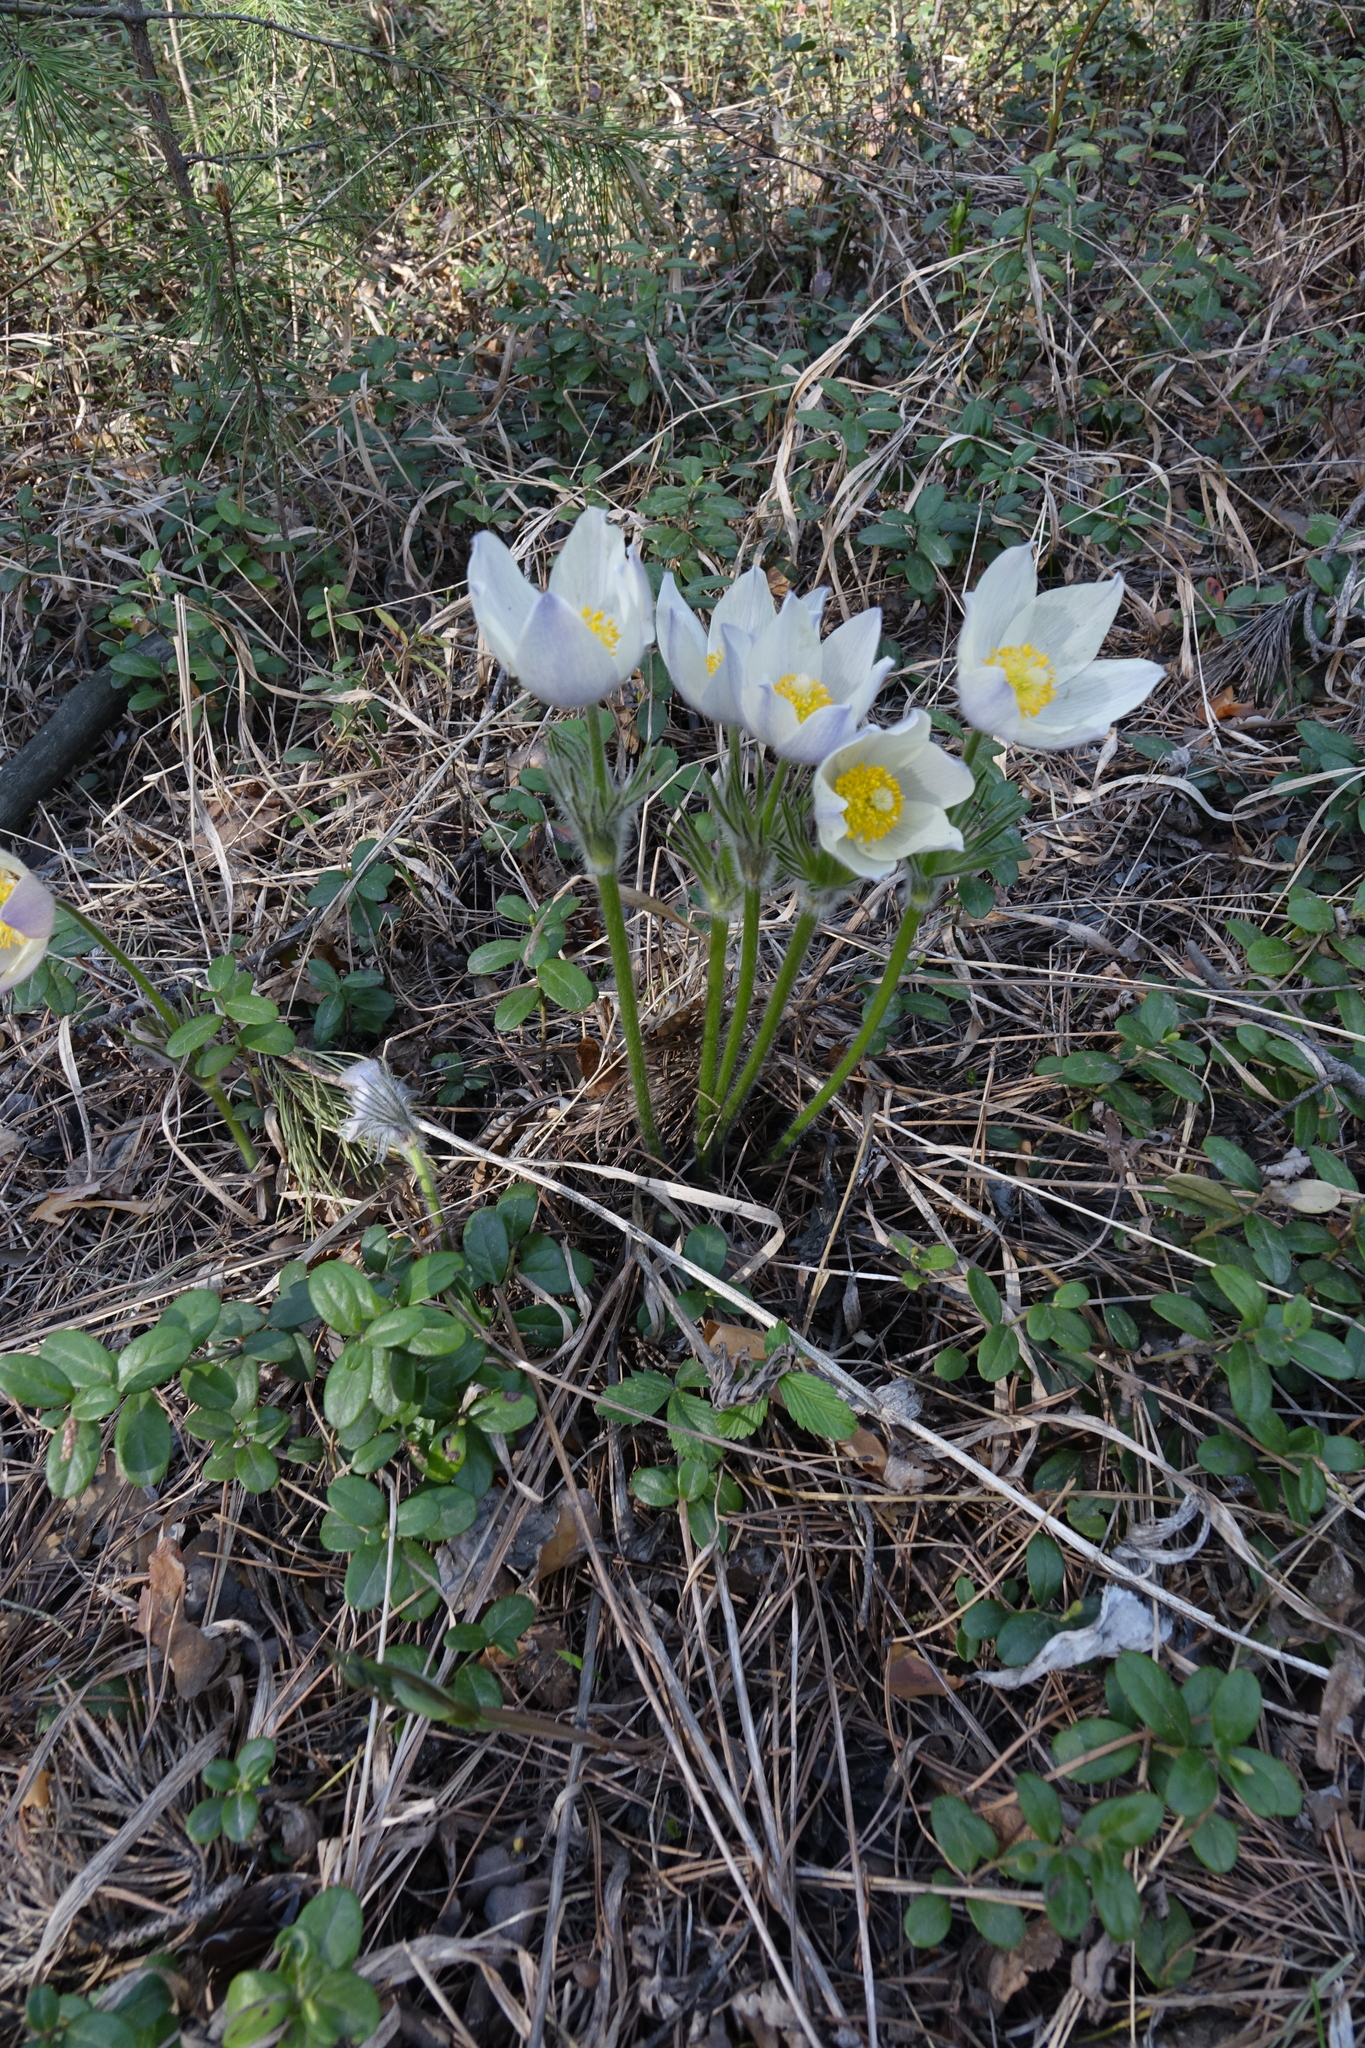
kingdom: Plantae
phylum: Tracheophyta
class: Magnoliopsida
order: Ranunculales
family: Ranunculaceae
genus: Pulsatilla
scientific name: Pulsatilla patens
